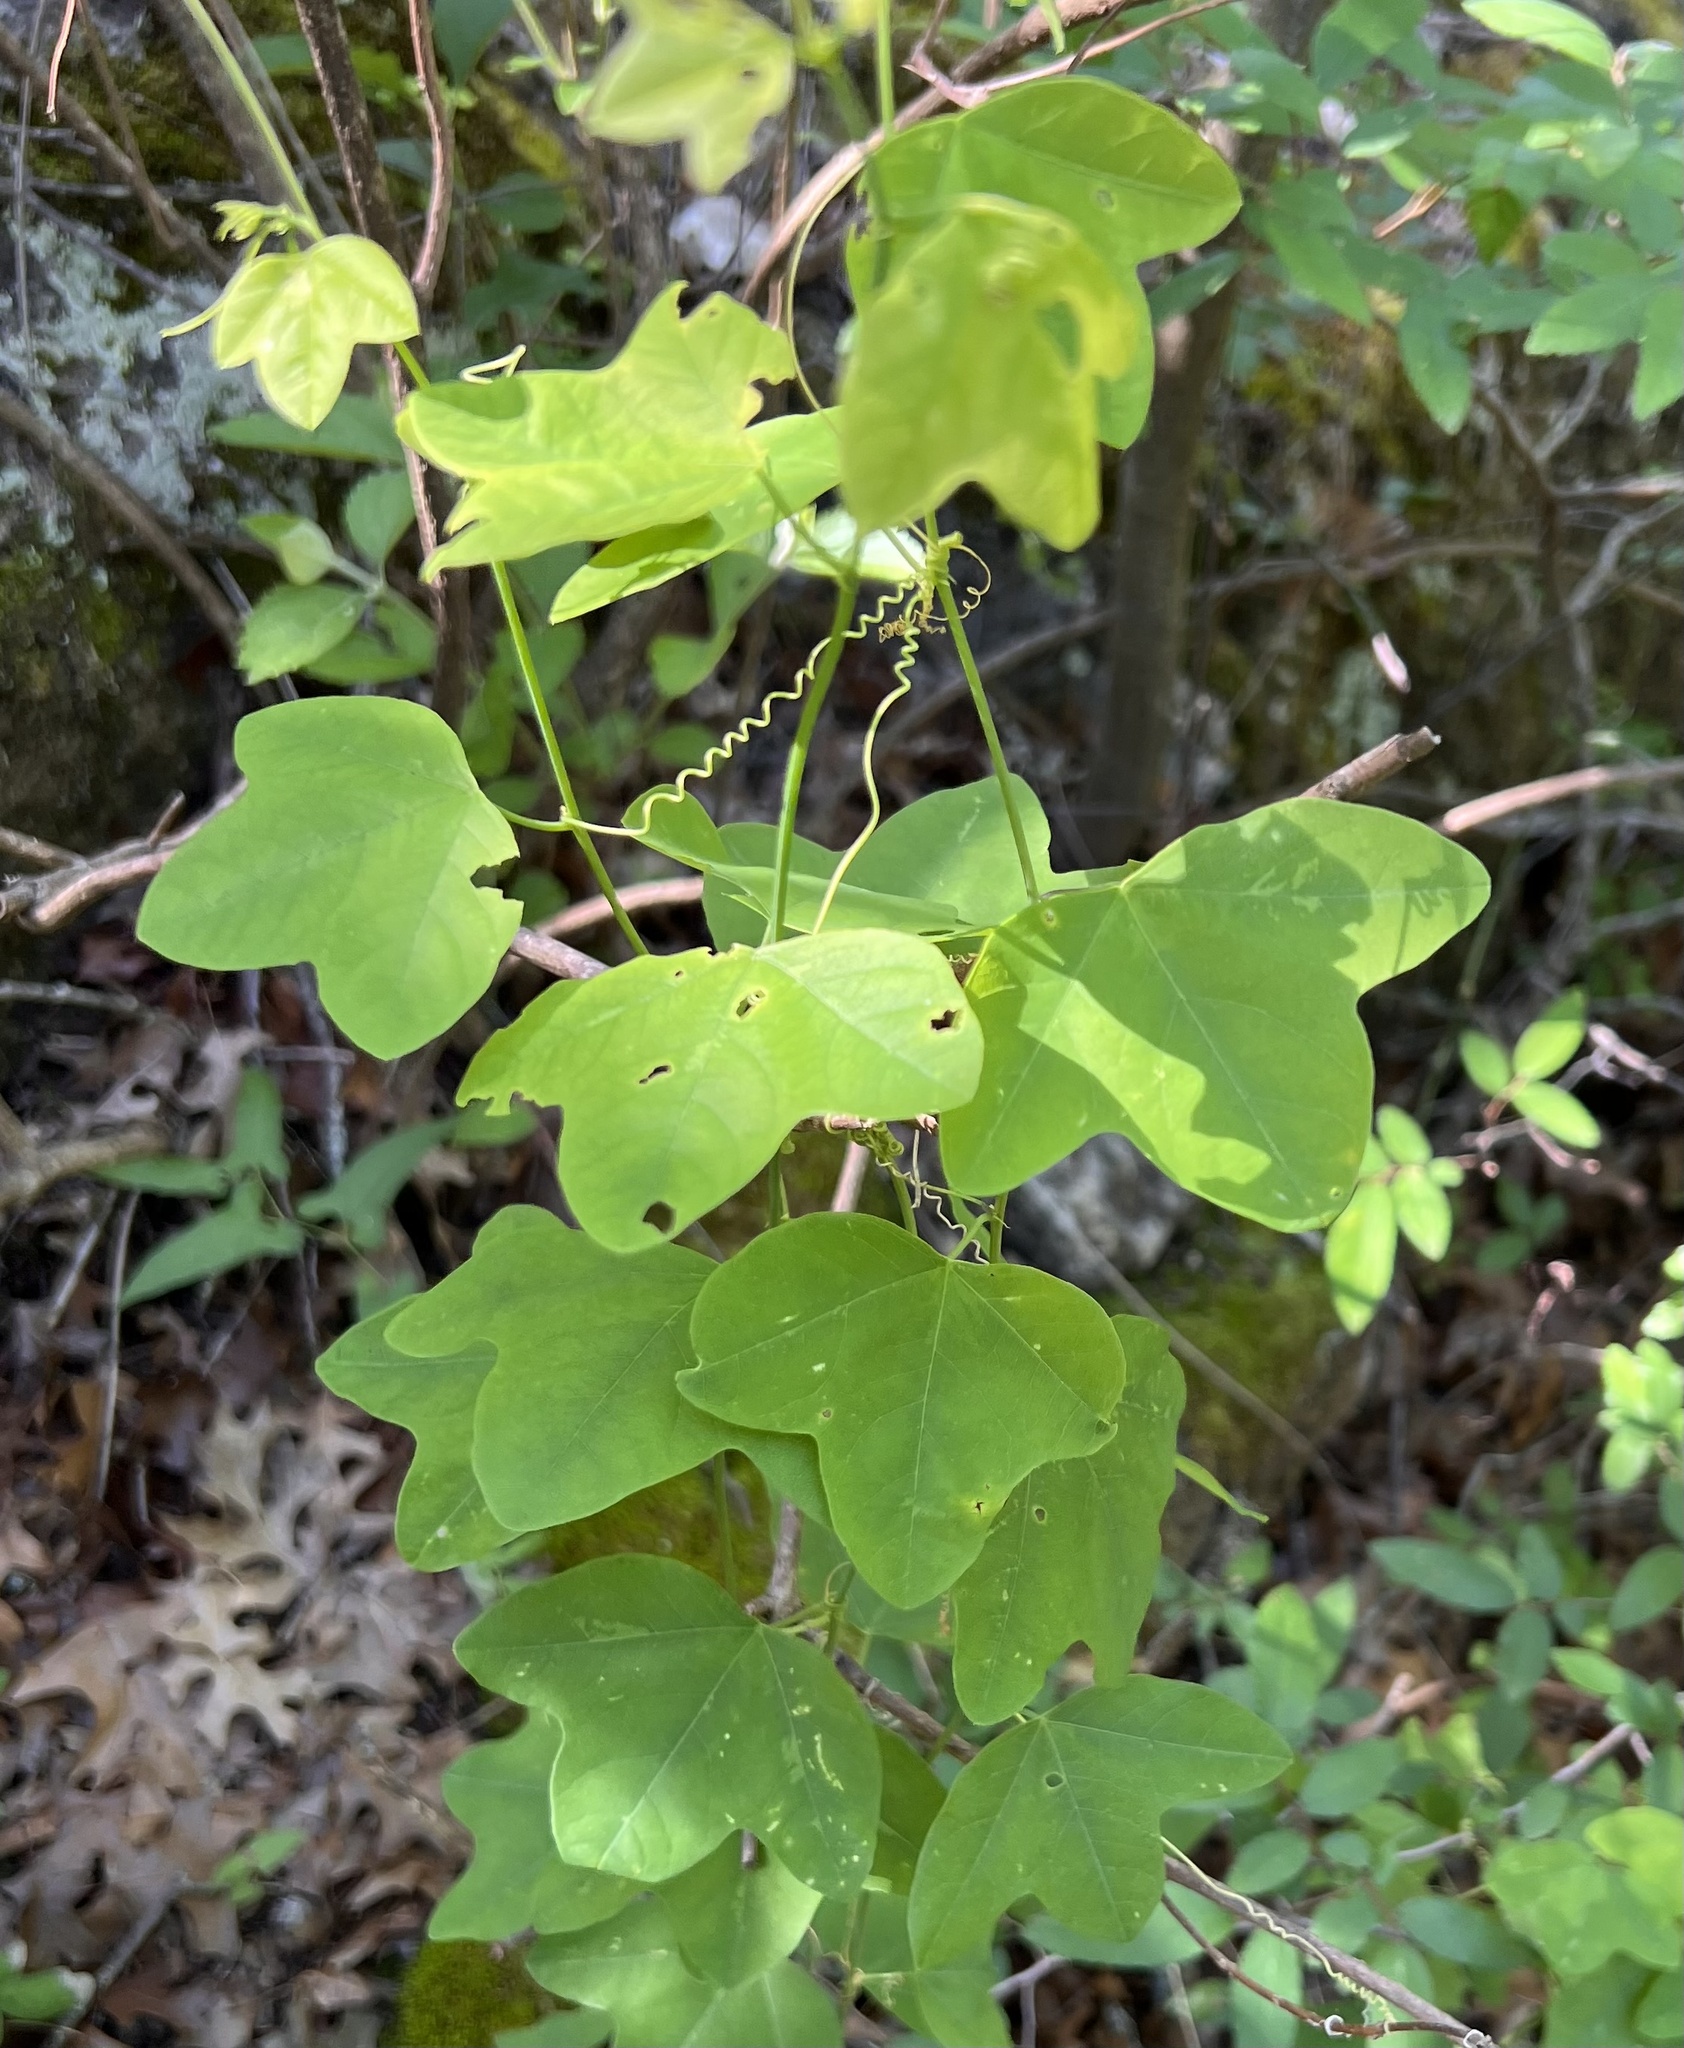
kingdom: Plantae
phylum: Tracheophyta
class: Magnoliopsida
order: Malpighiales
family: Passifloraceae
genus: Passiflora
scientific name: Passiflora lutea
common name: Yellow passionflower
